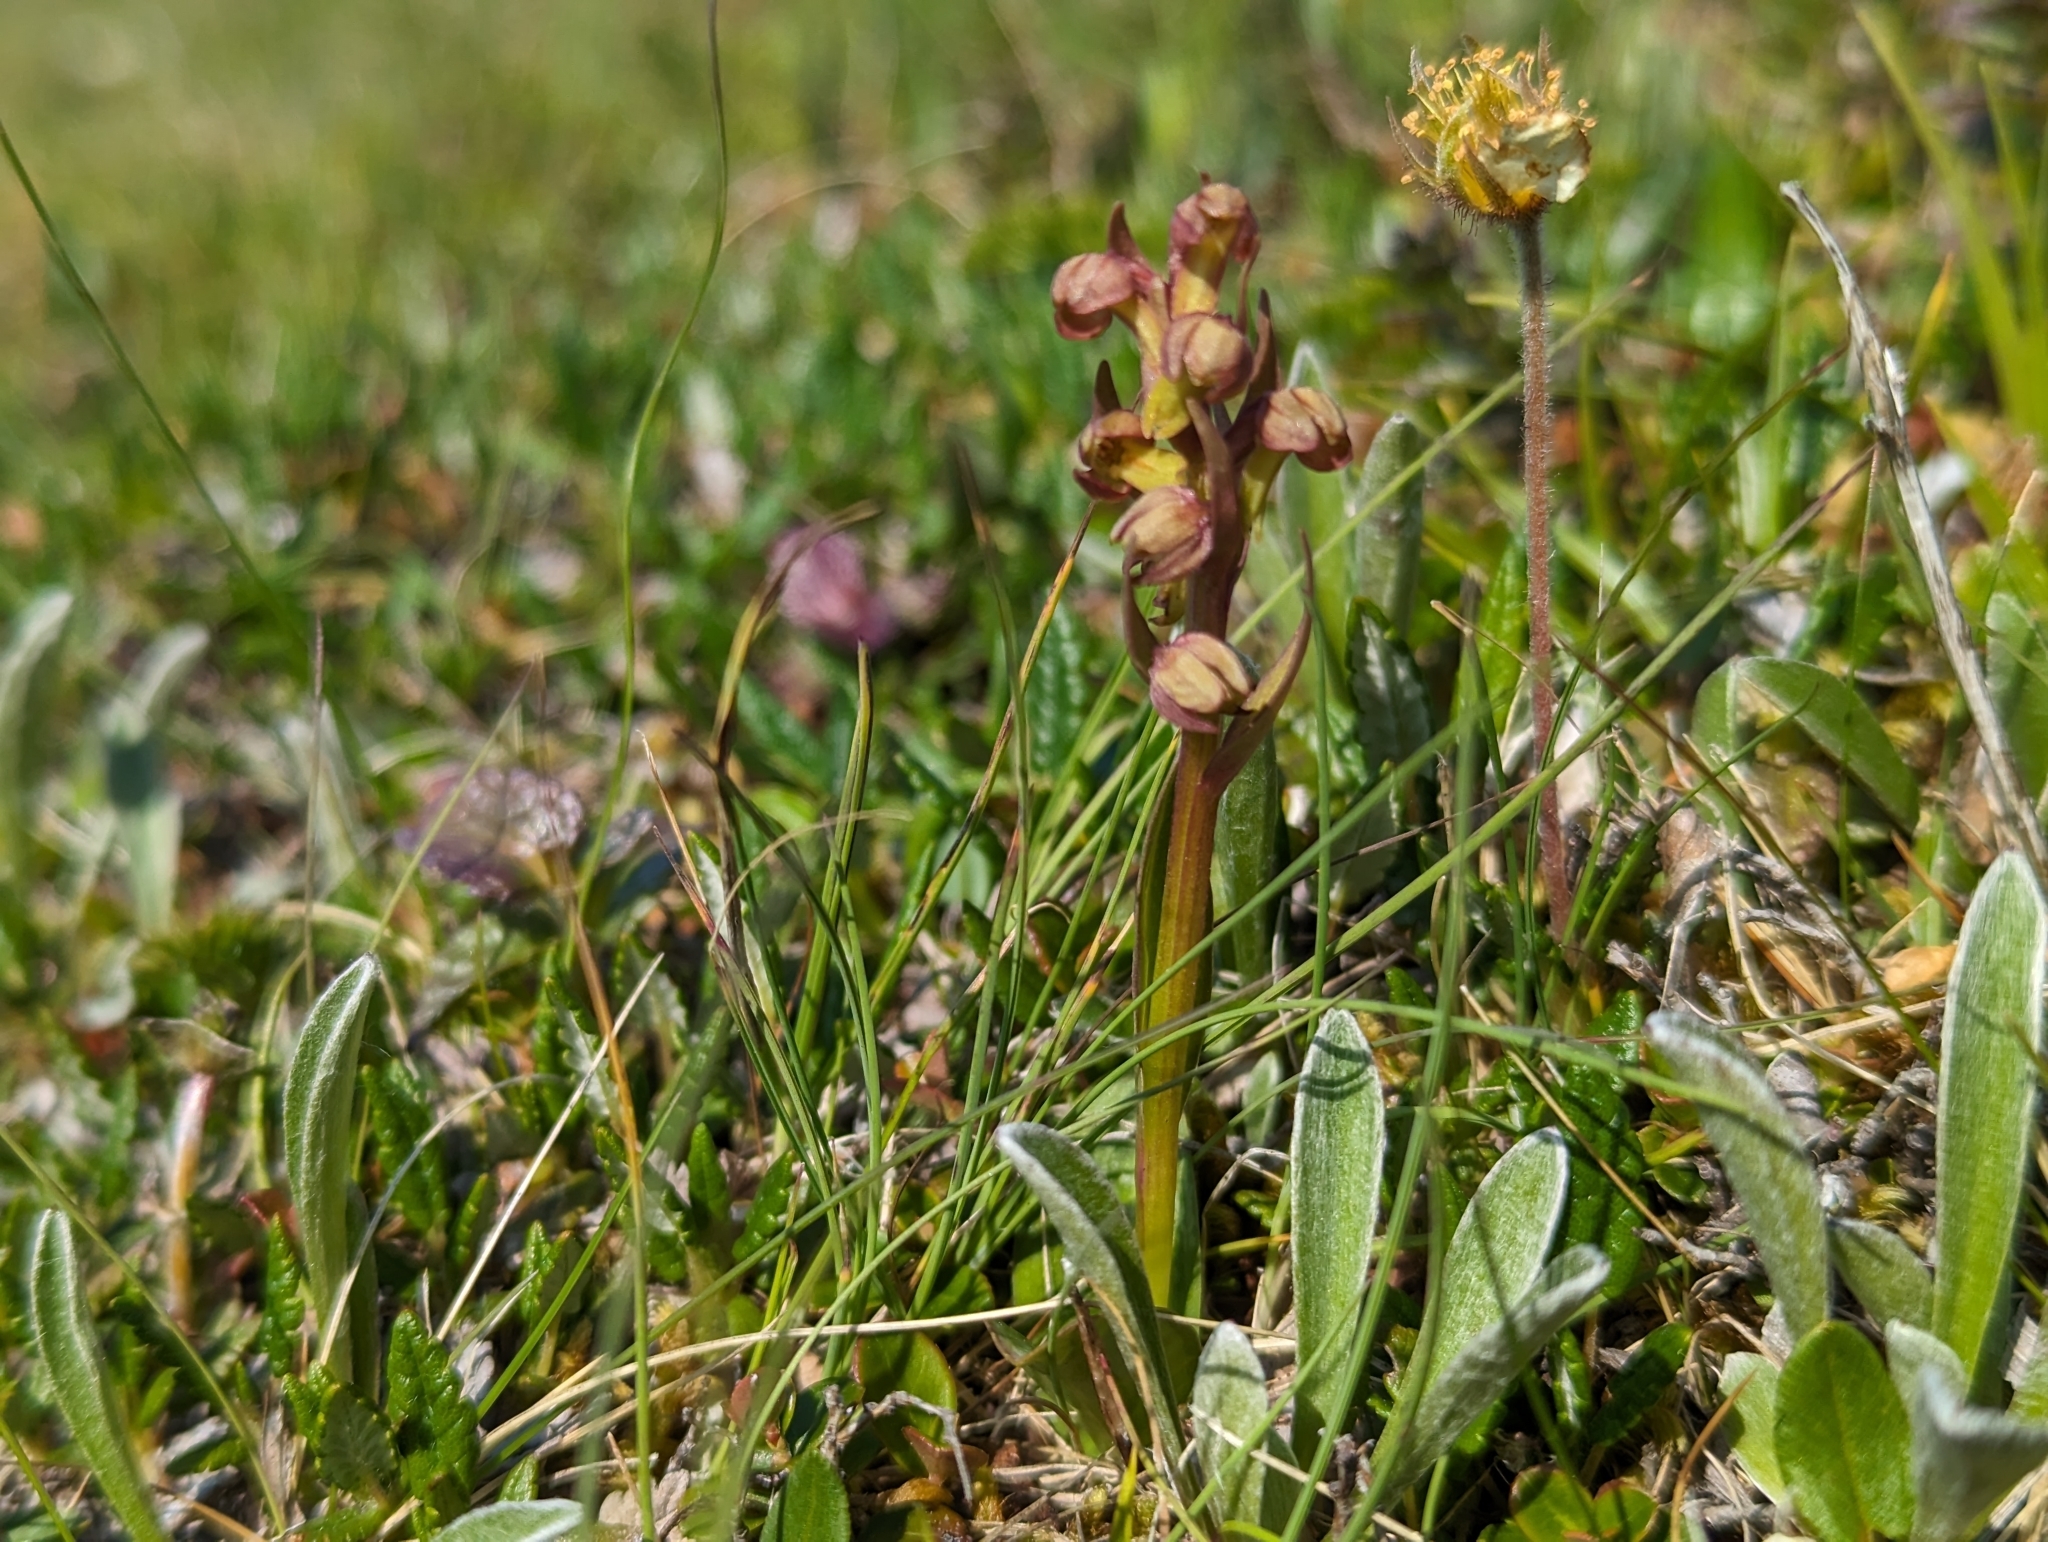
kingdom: Plantae
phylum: Tracheophyta
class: Liliopsida
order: Asparagales
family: Orchidaceae
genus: Dactylorhiza
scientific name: Dactylorhiza viridis
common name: Longbract frog orchid
